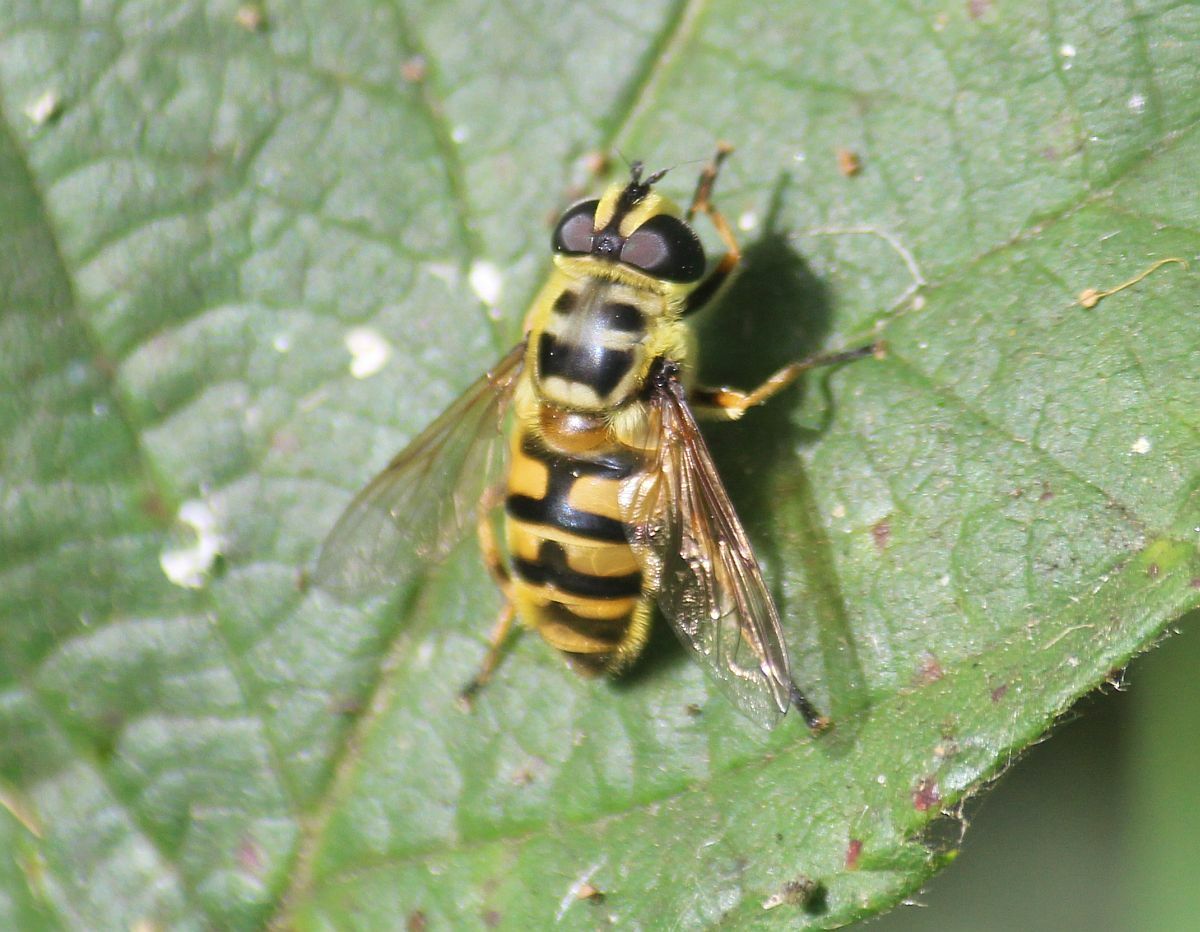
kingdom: Animalia
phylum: Arthropoda
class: Insecta
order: Diptera
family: Syrphidae
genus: Myathropa
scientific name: Myathropa florea
